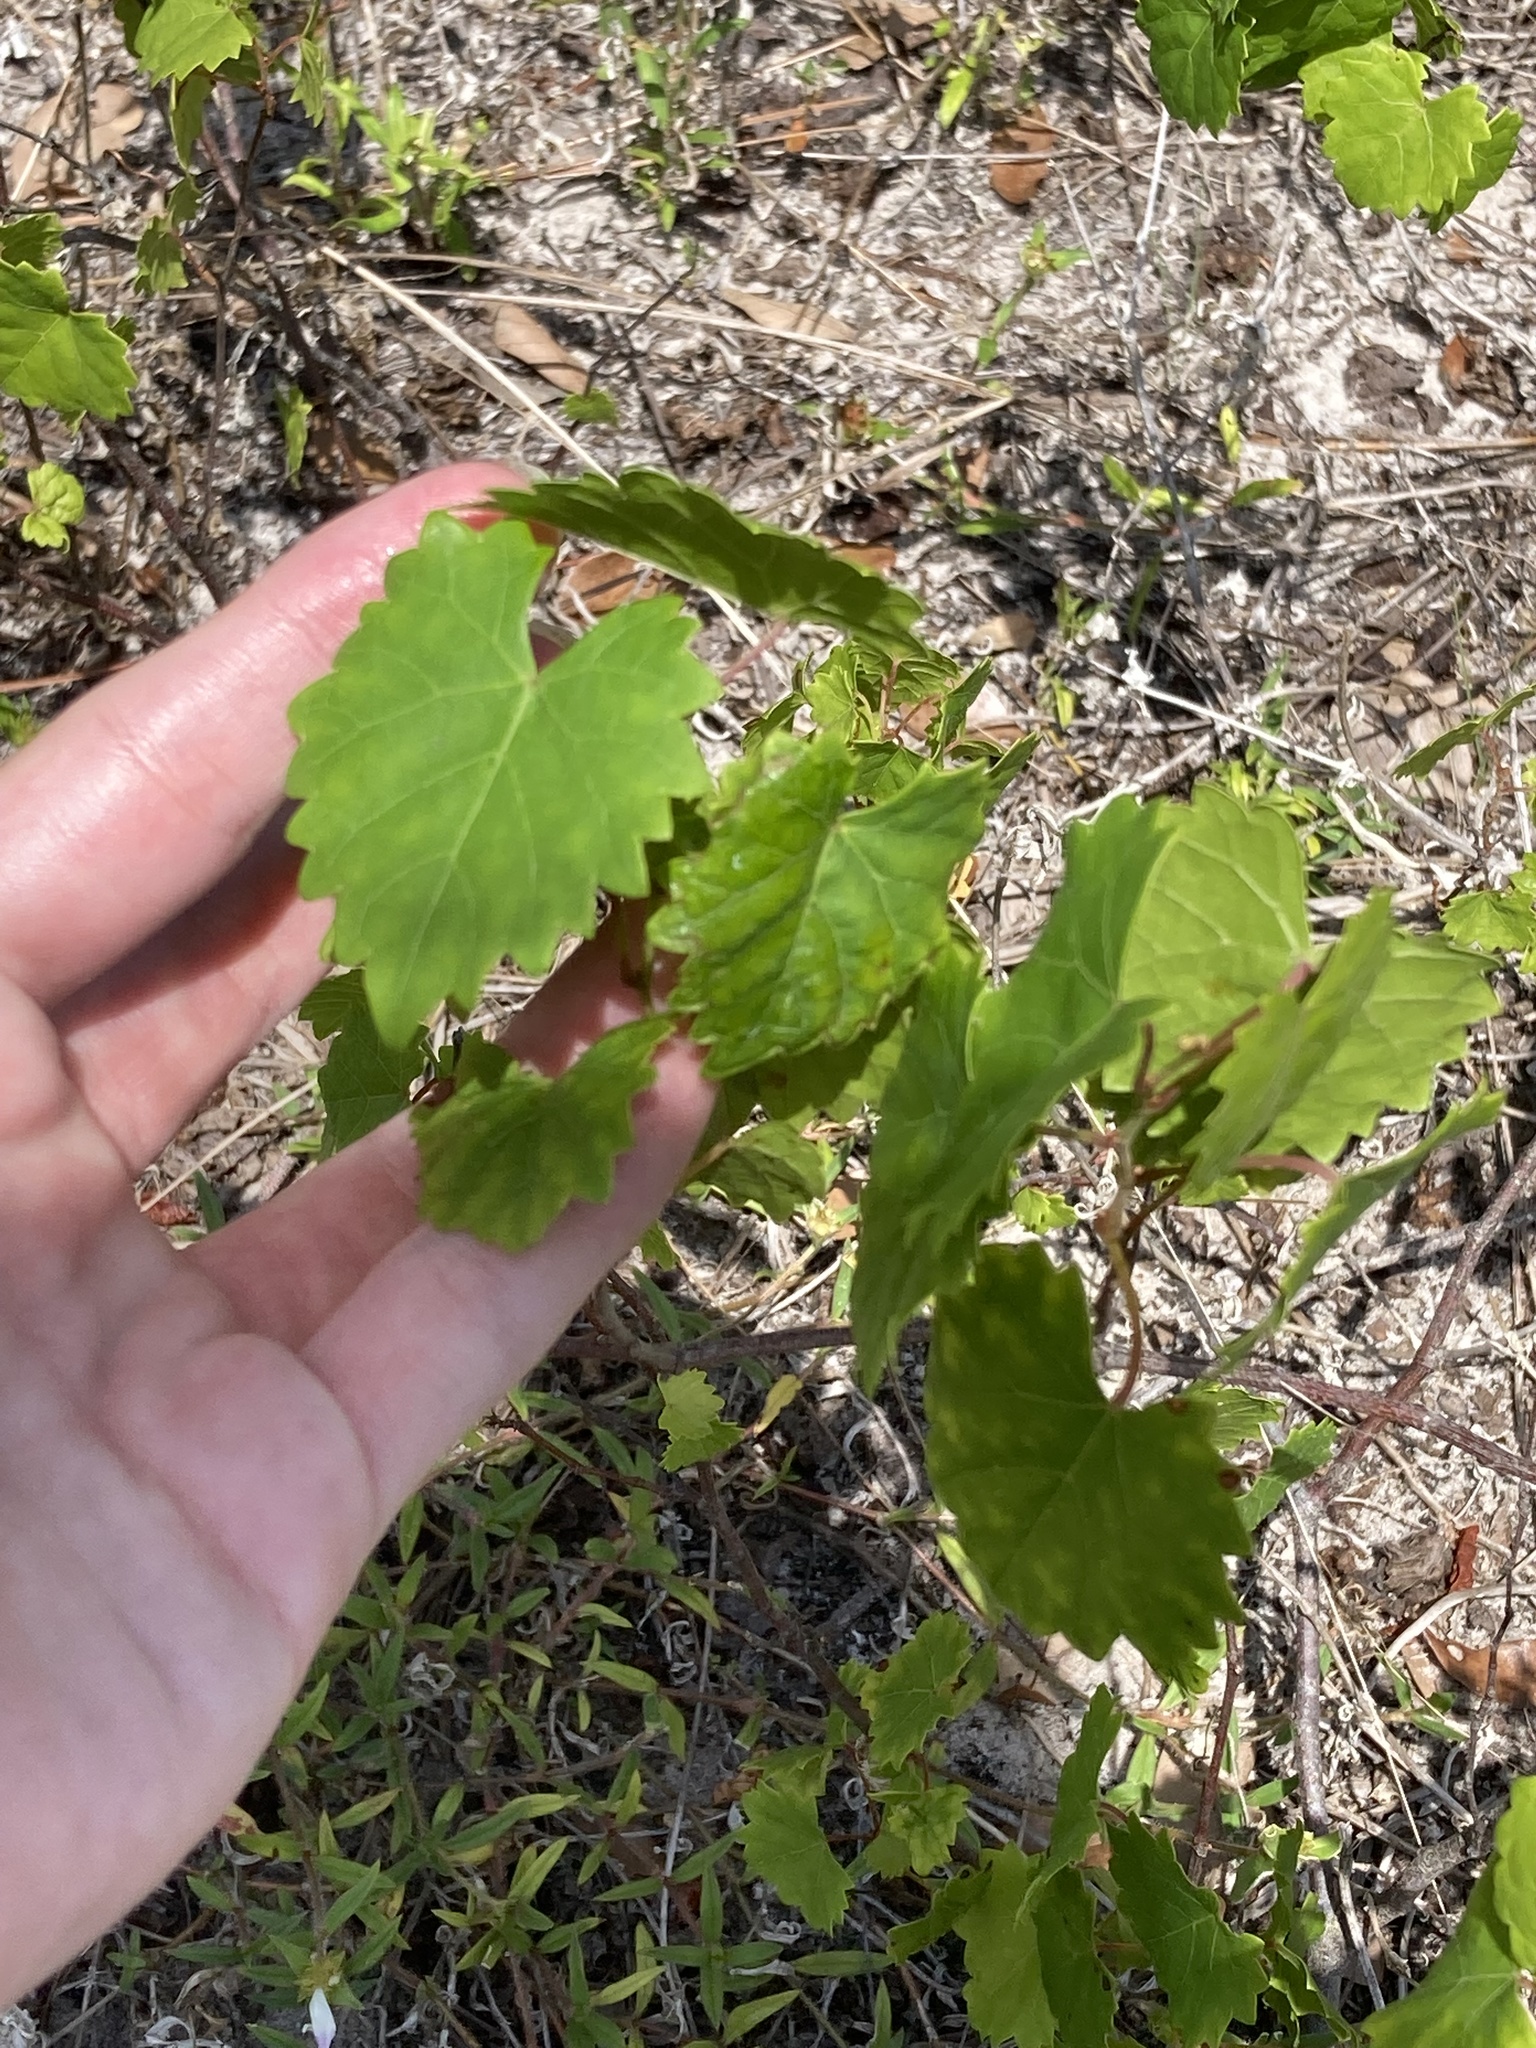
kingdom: Plantae
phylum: Tracheophyta
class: Magnoliopsida
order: Vitales
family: Vitaceae
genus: Vitis
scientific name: Vitis rotundifolia
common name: Muscadine grape
